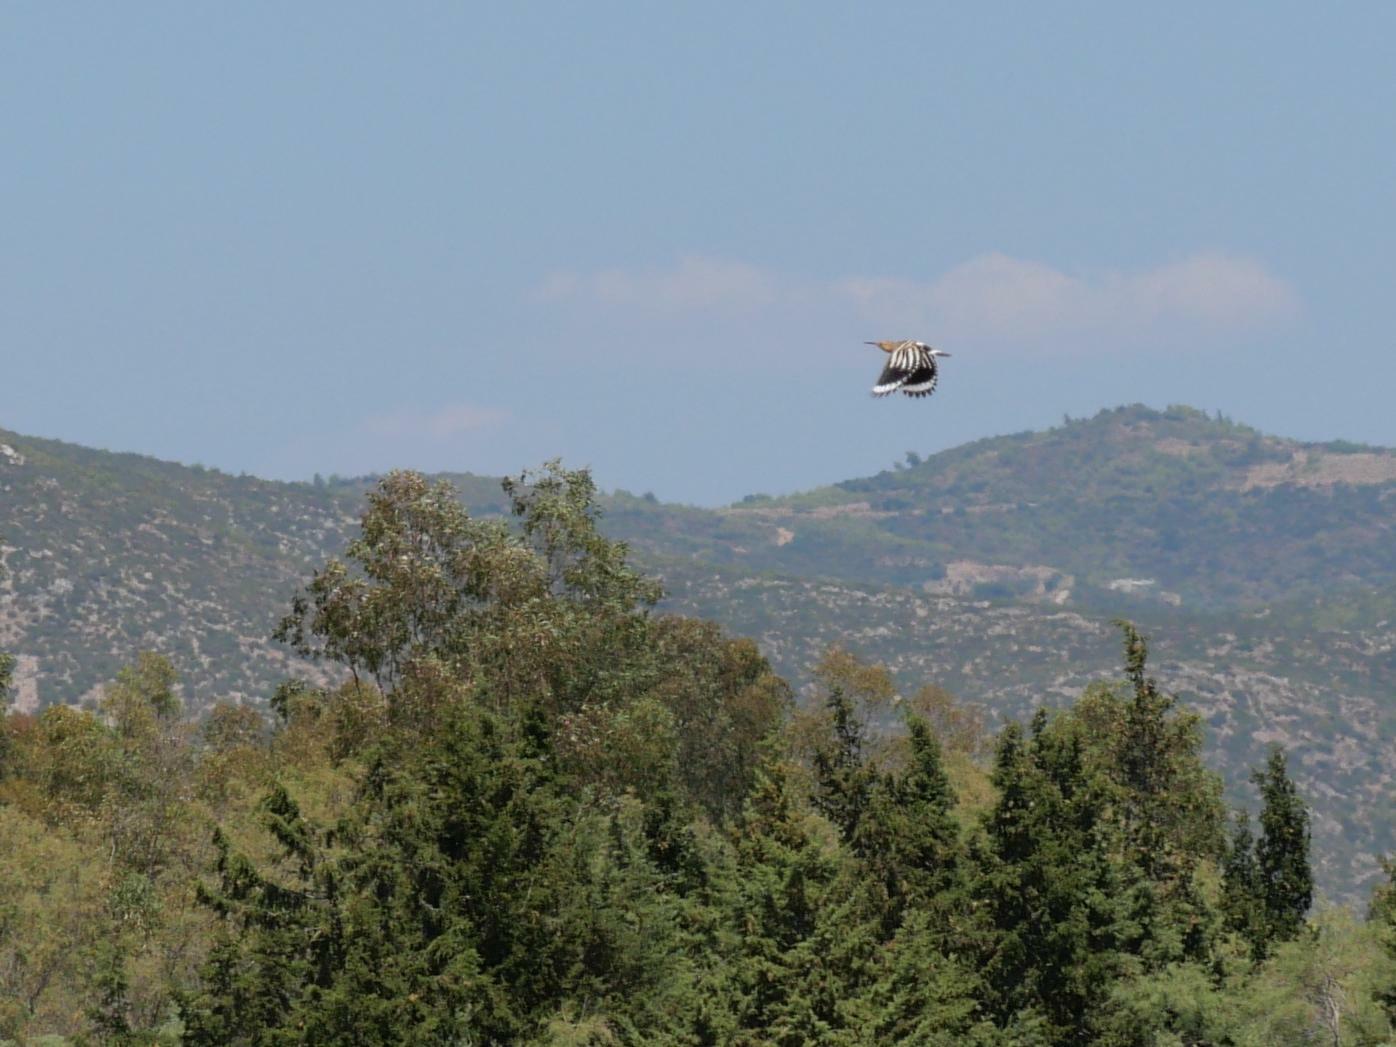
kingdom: Animalia
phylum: Chordata
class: Aves
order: Bucerotiformes
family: Upupidae
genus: Upupa
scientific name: Upupa epops
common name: Eurasian hoopoe
